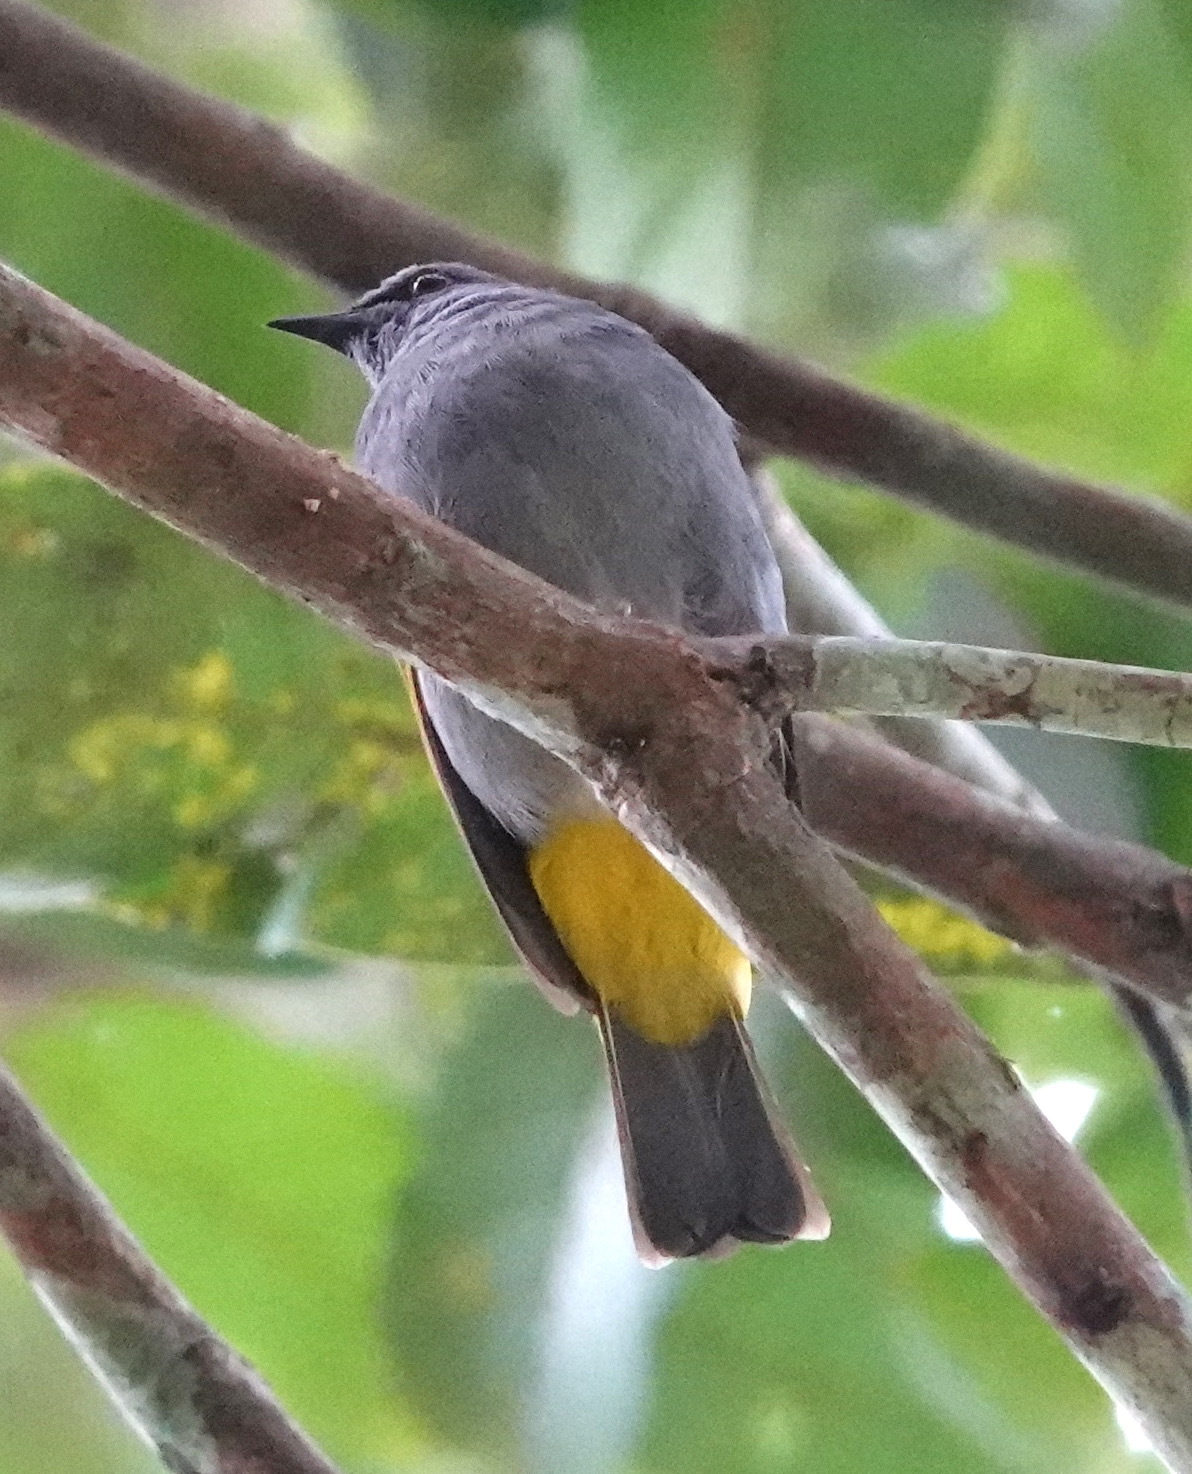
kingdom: Animalia
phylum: Chordata
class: Aves
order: Passeriformes
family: Pycnonotidae
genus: Rubigula
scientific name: Rubigula cyaniventris
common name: Gray-bellied bulbul
